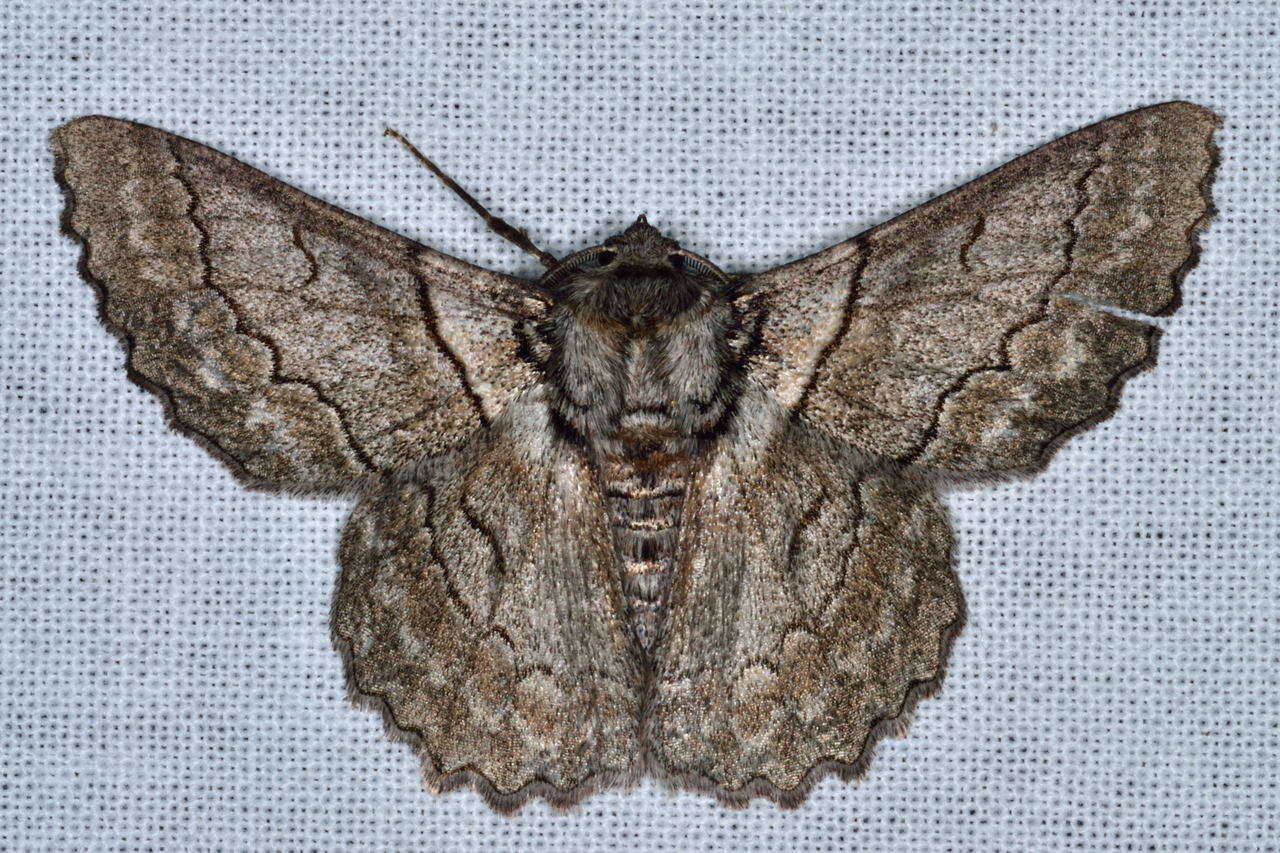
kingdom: Animalia
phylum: Arthropoda
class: Insecta
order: Lepidoptera
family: Geometridae
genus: Hypobapta
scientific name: Hypobapta tachyhalotaria
